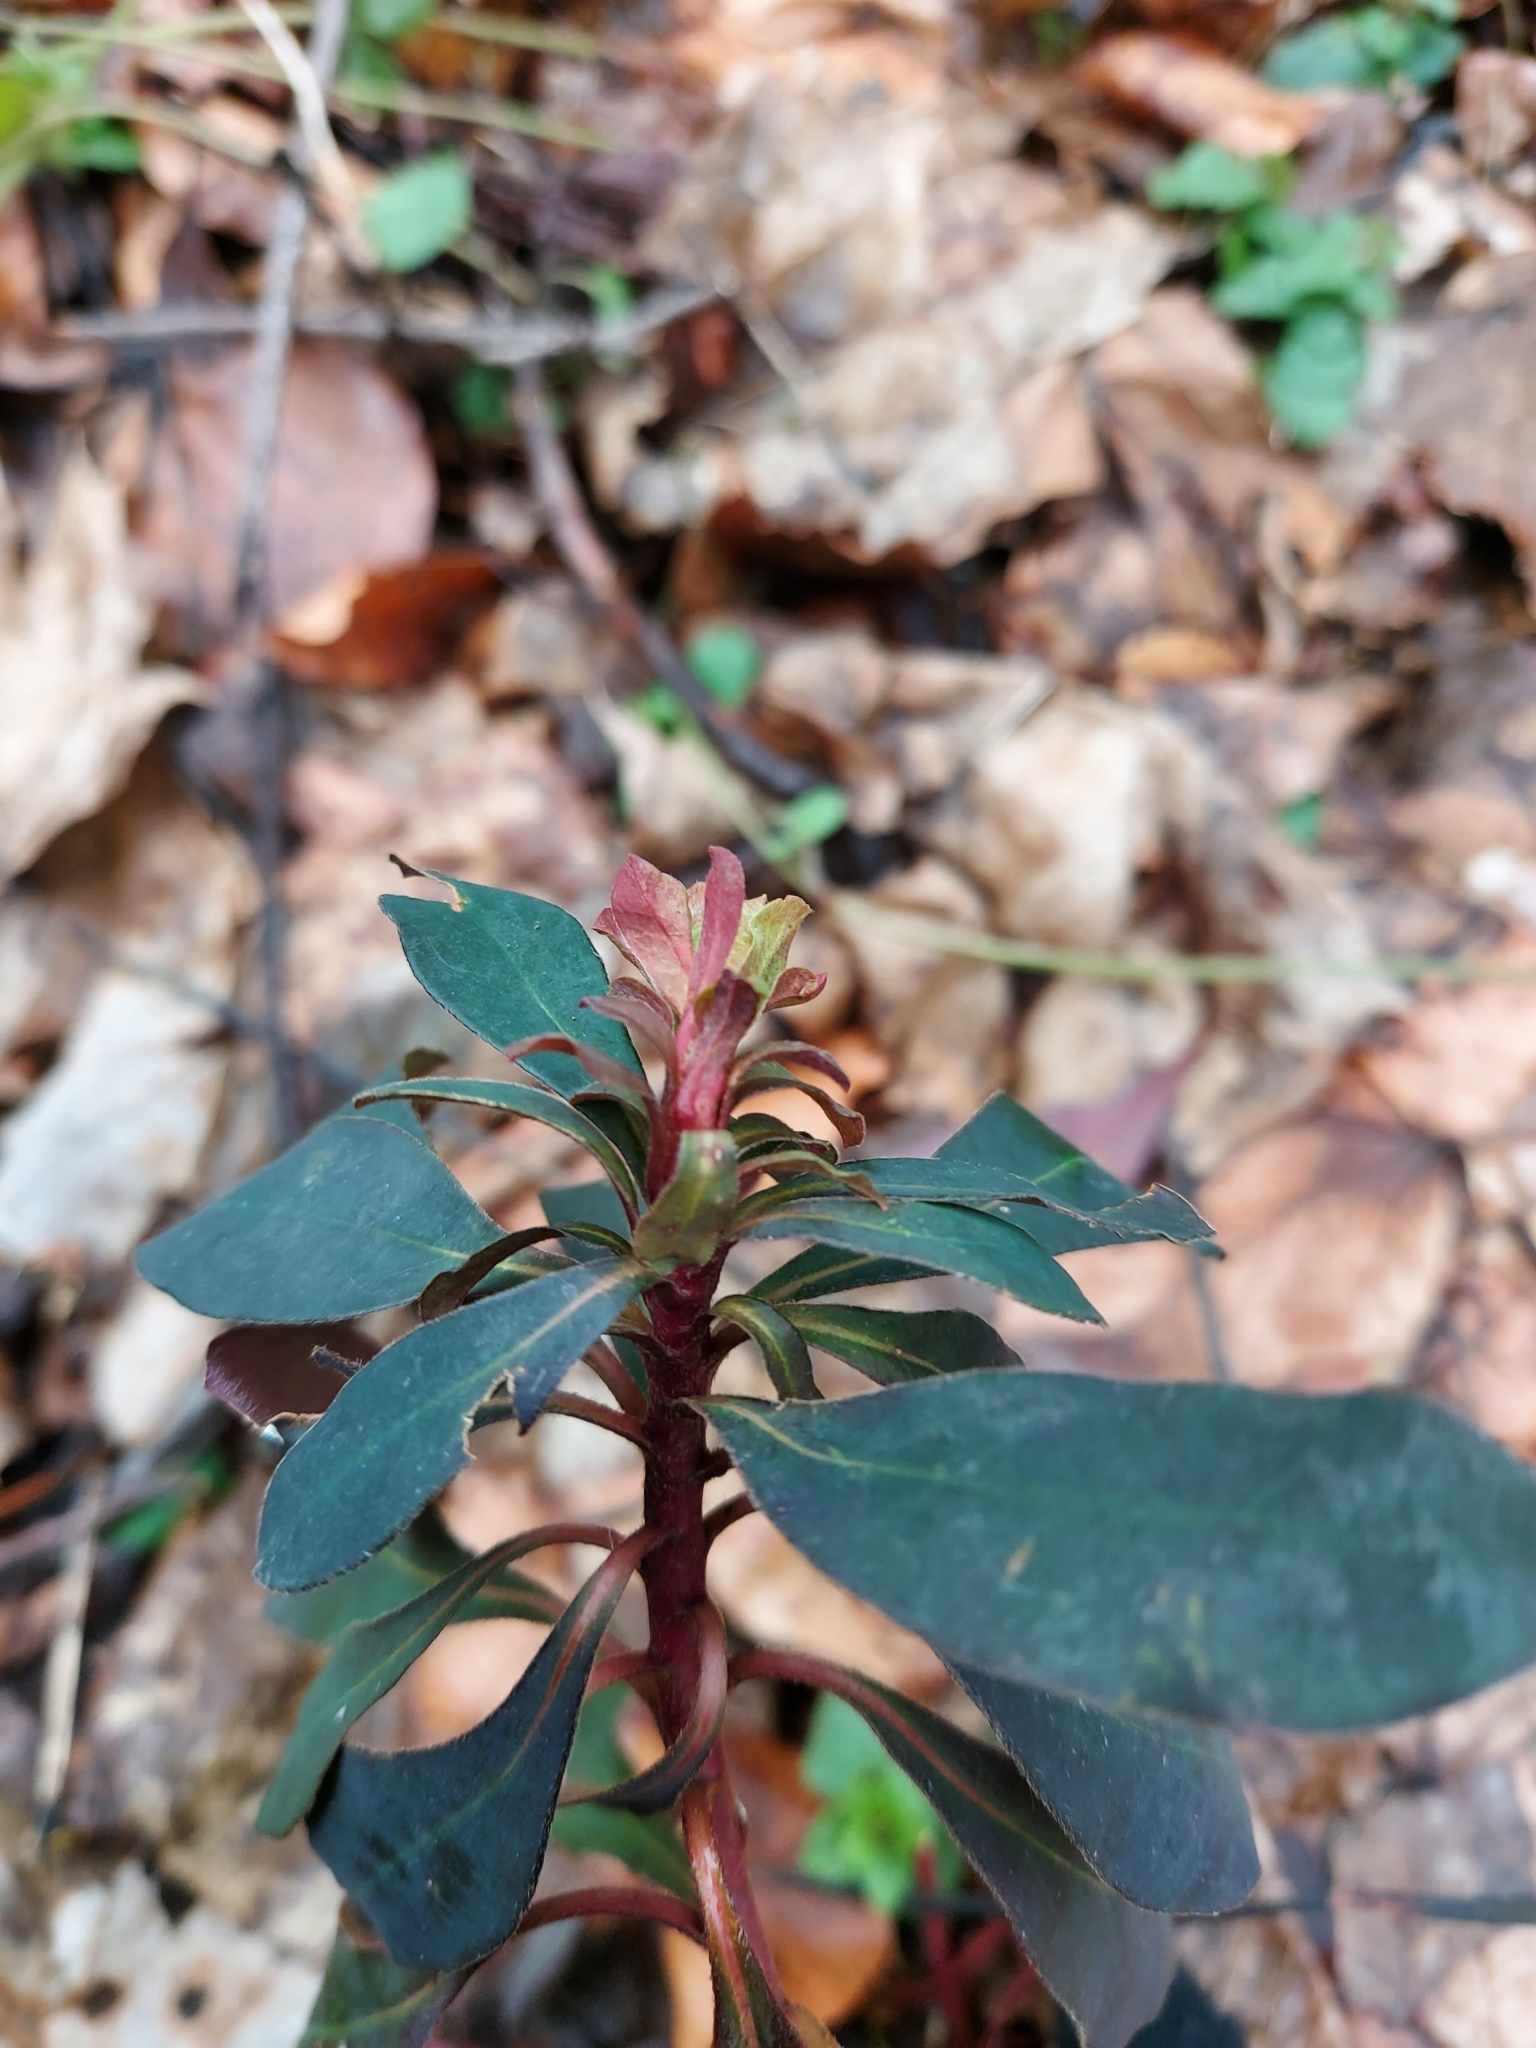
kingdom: Plantae
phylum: Tracheophyta
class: Magnoliopsida
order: Malpighiales
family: Euphorbiaceae
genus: Euphorbia
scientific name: Euphorbia amygdaloides
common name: Wood spurge
